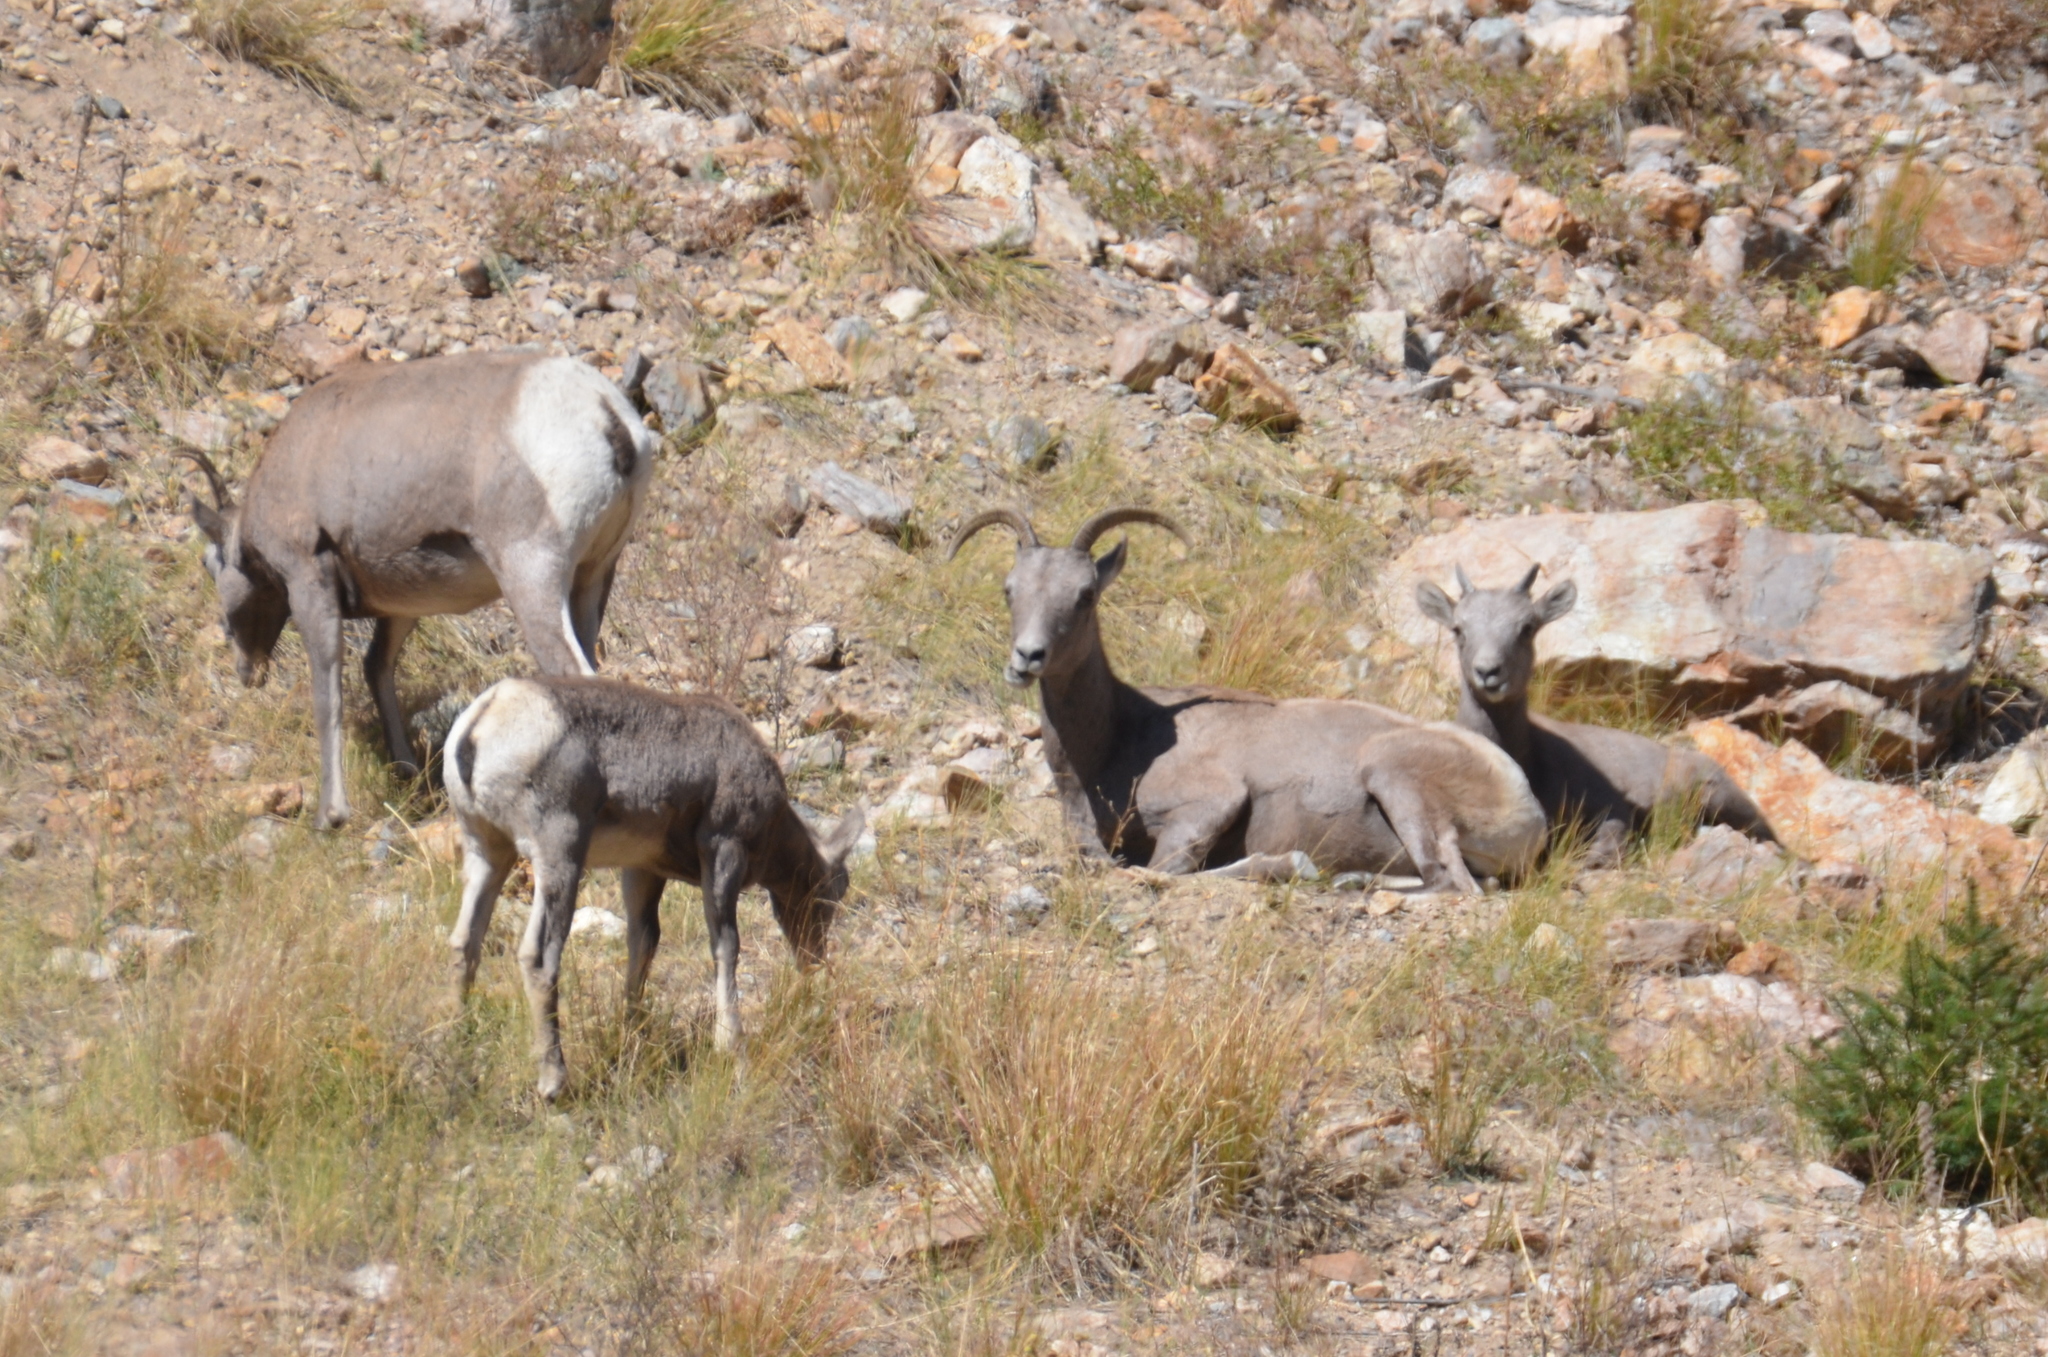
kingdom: Animalia
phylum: Chordata
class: Mammalia
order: Artiodactyla
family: Bovidae
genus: Ovis
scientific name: Ovis canadensis
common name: Bighorn sheep
